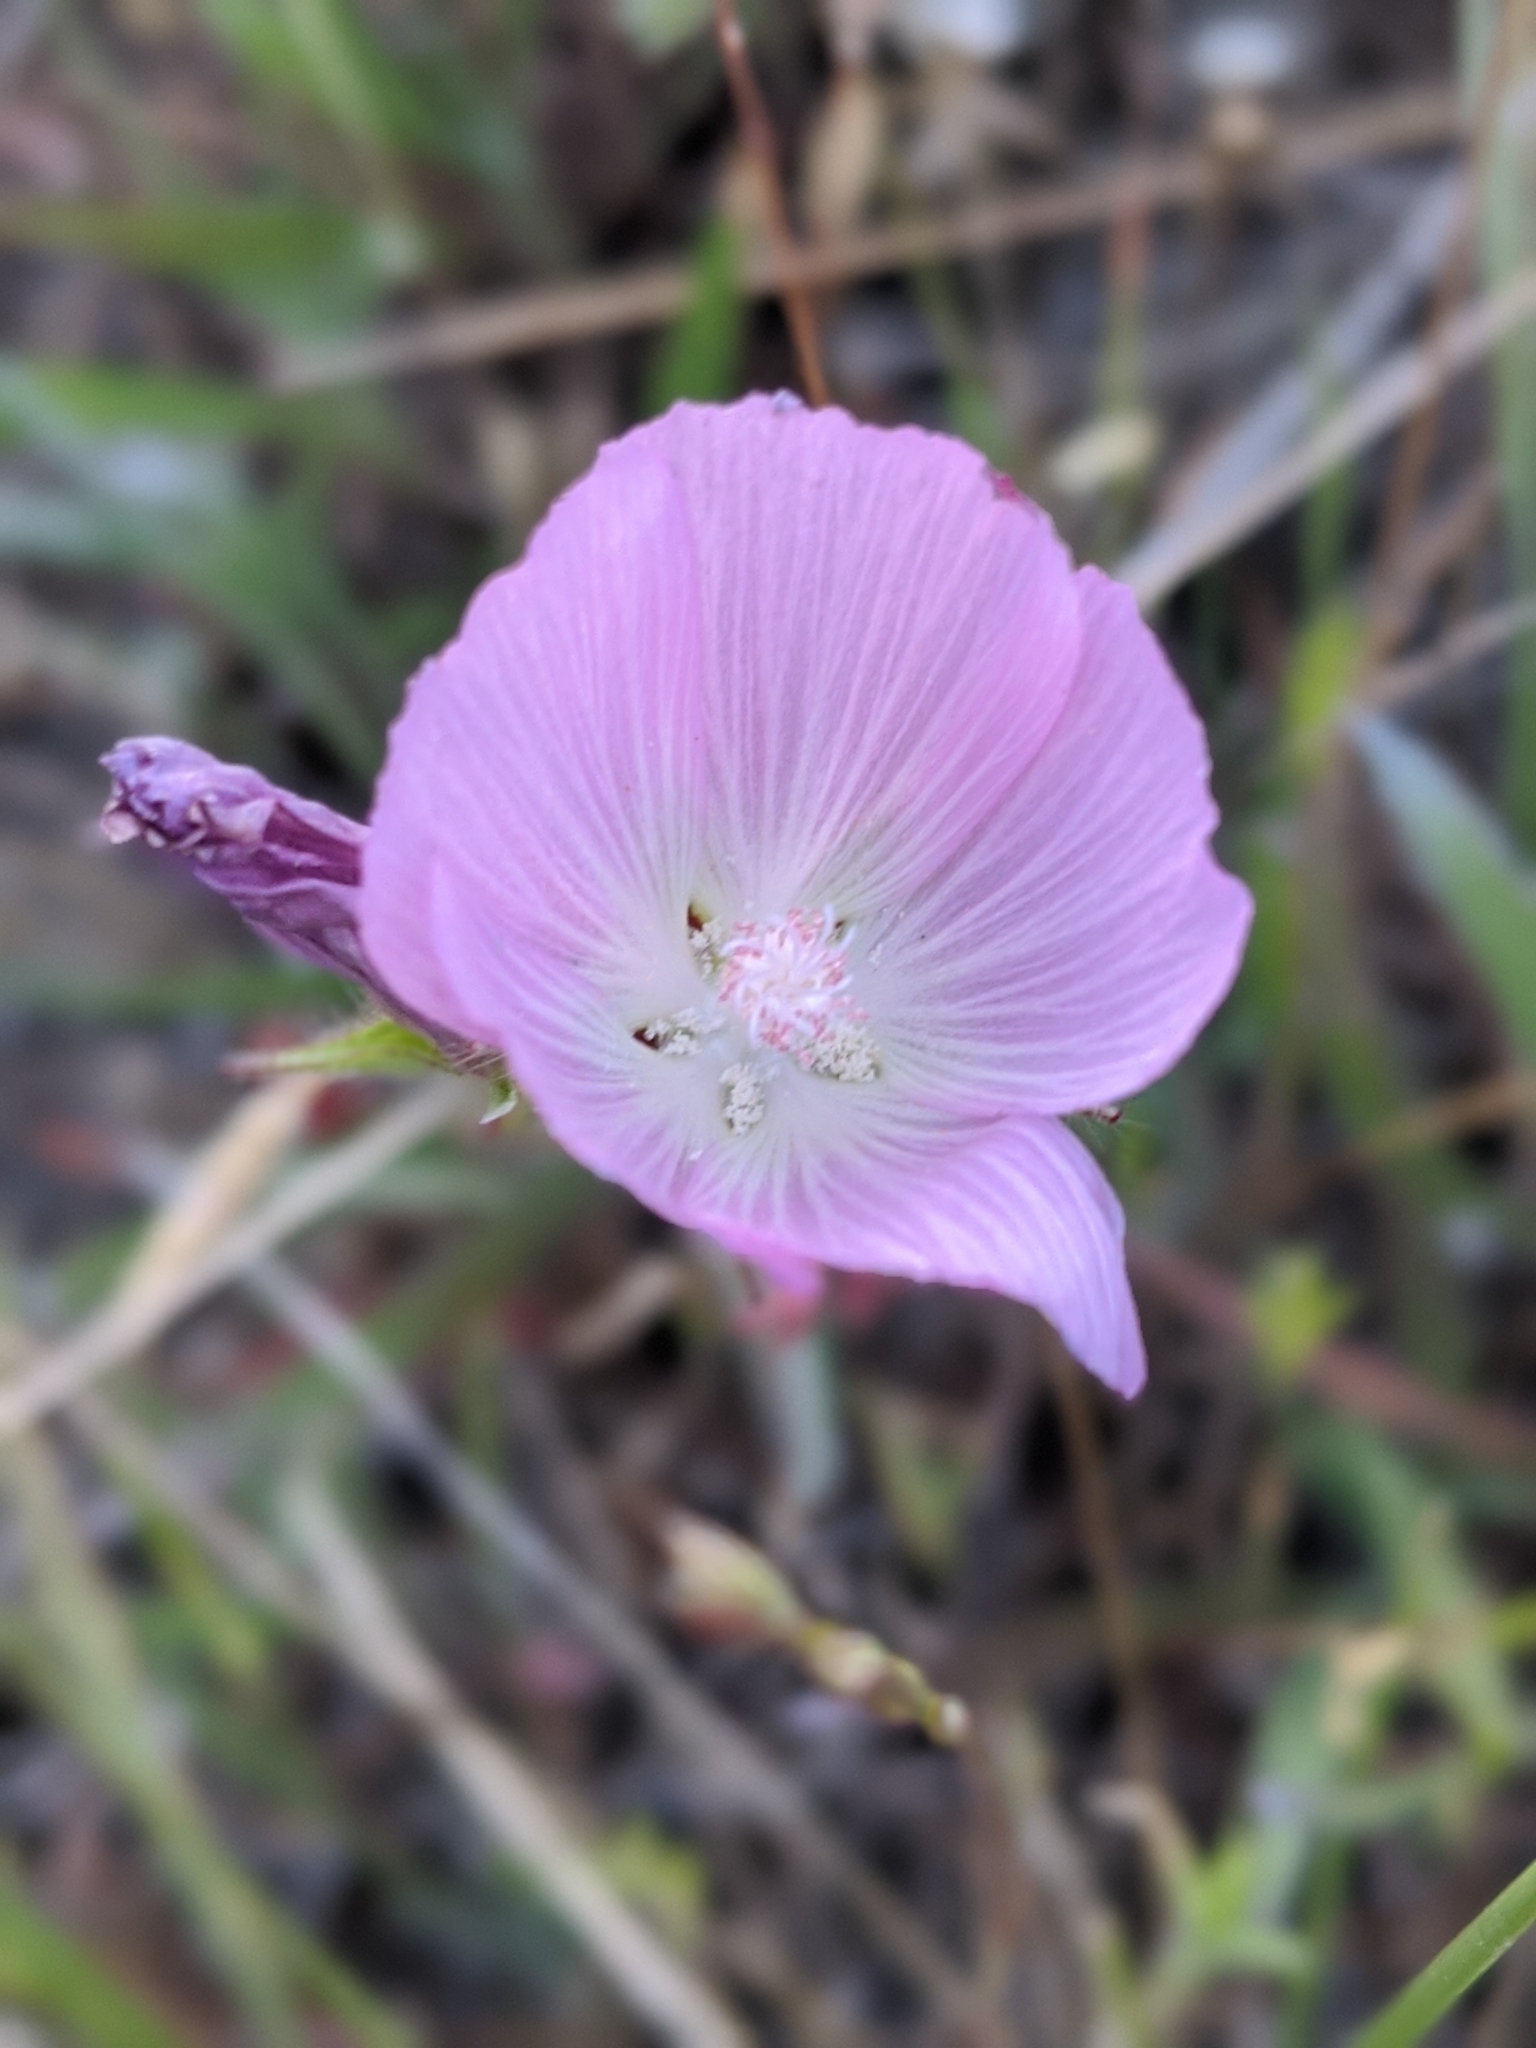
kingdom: Plantae
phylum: Tracheophyta
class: Magnoliopsida
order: Malvales
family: Malvaceae
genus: Sidalcea
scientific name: Sidalcea diploscypha
